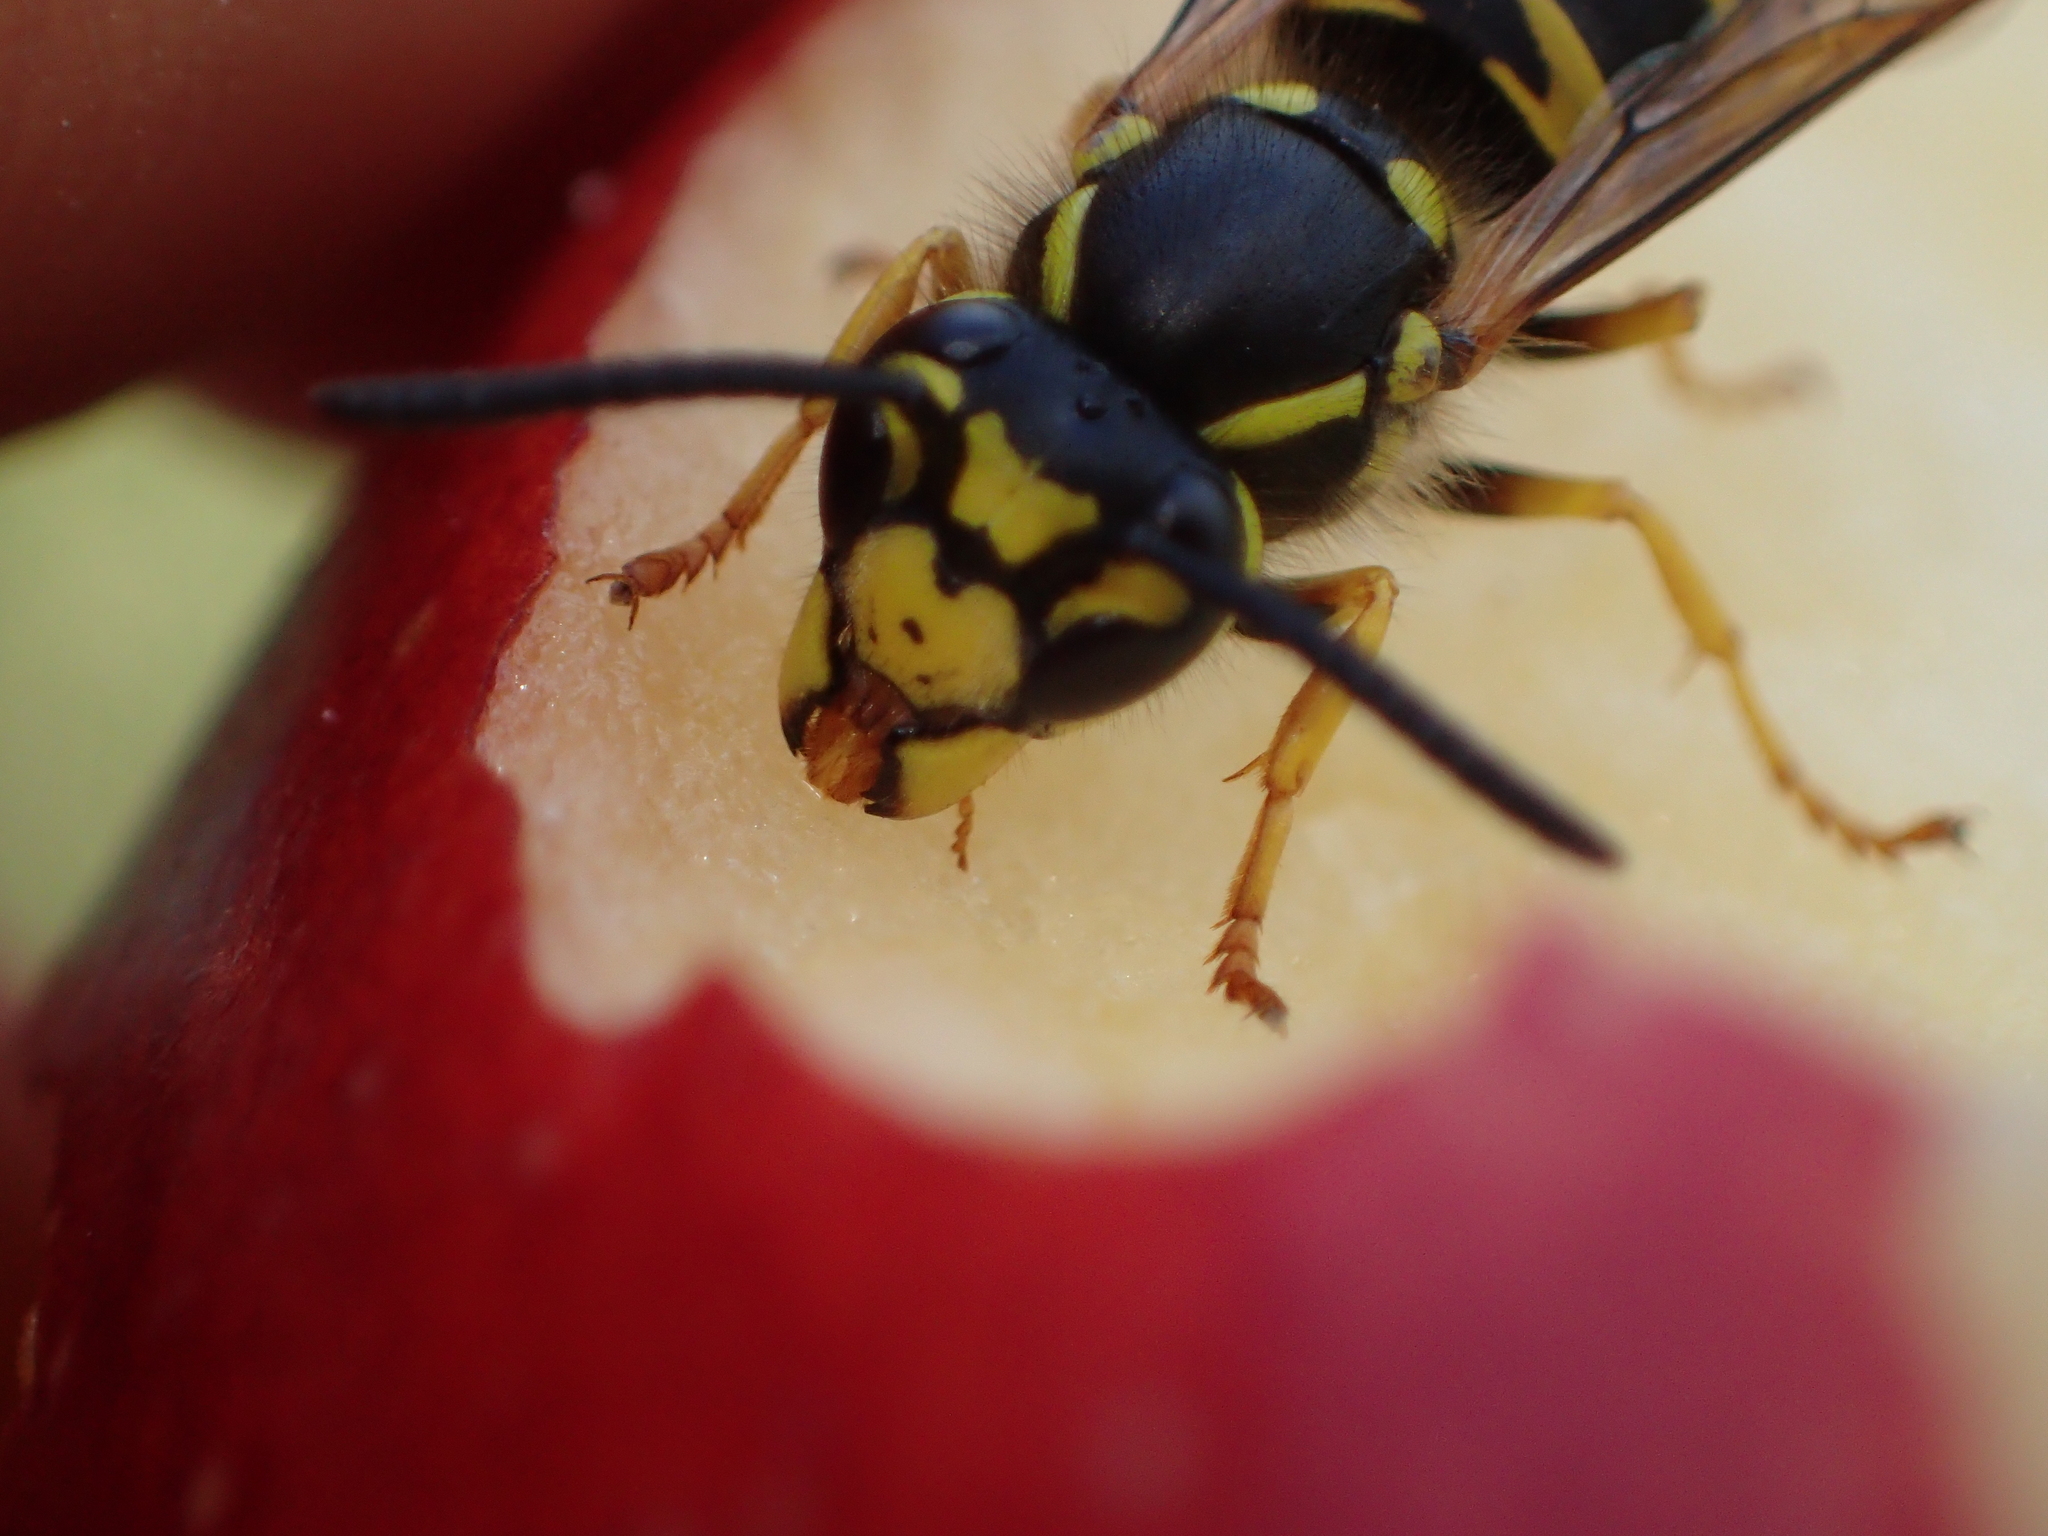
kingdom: Animalia
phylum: Arthropoda
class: Insecta
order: Hymenoptera
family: Vespidae
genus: Vespula
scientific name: Vespula germanica
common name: German wasp
